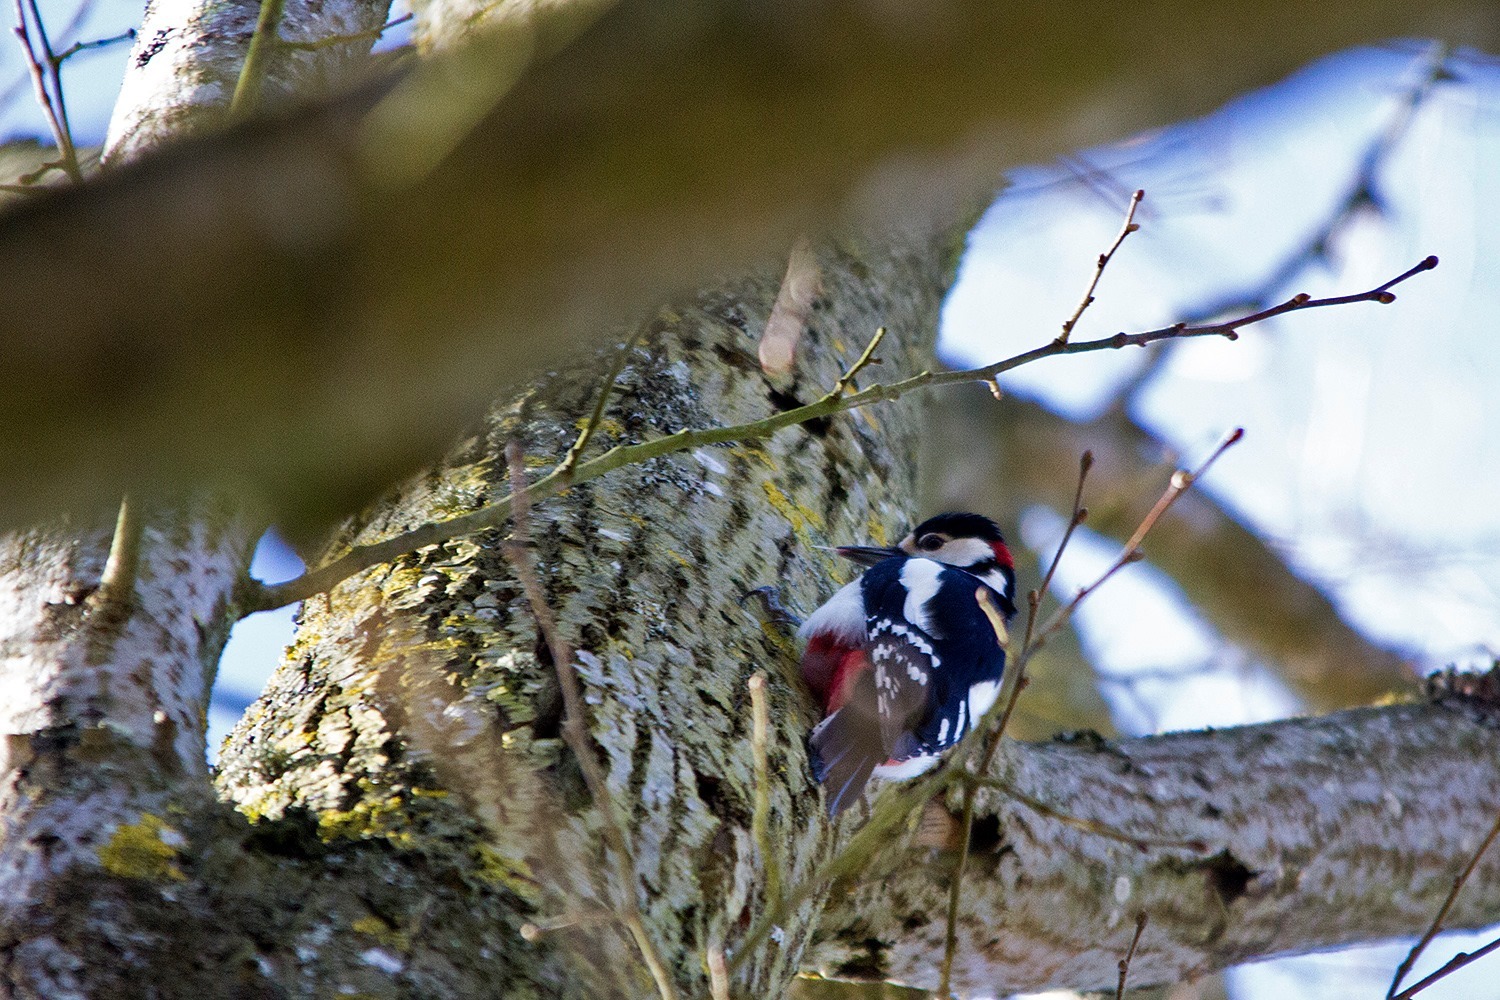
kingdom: Animalia
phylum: Chordata
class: Aves
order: Piciformes
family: Picidae
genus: Dendrocopos
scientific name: Dendrocopos major
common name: Great spotted woodpecker
